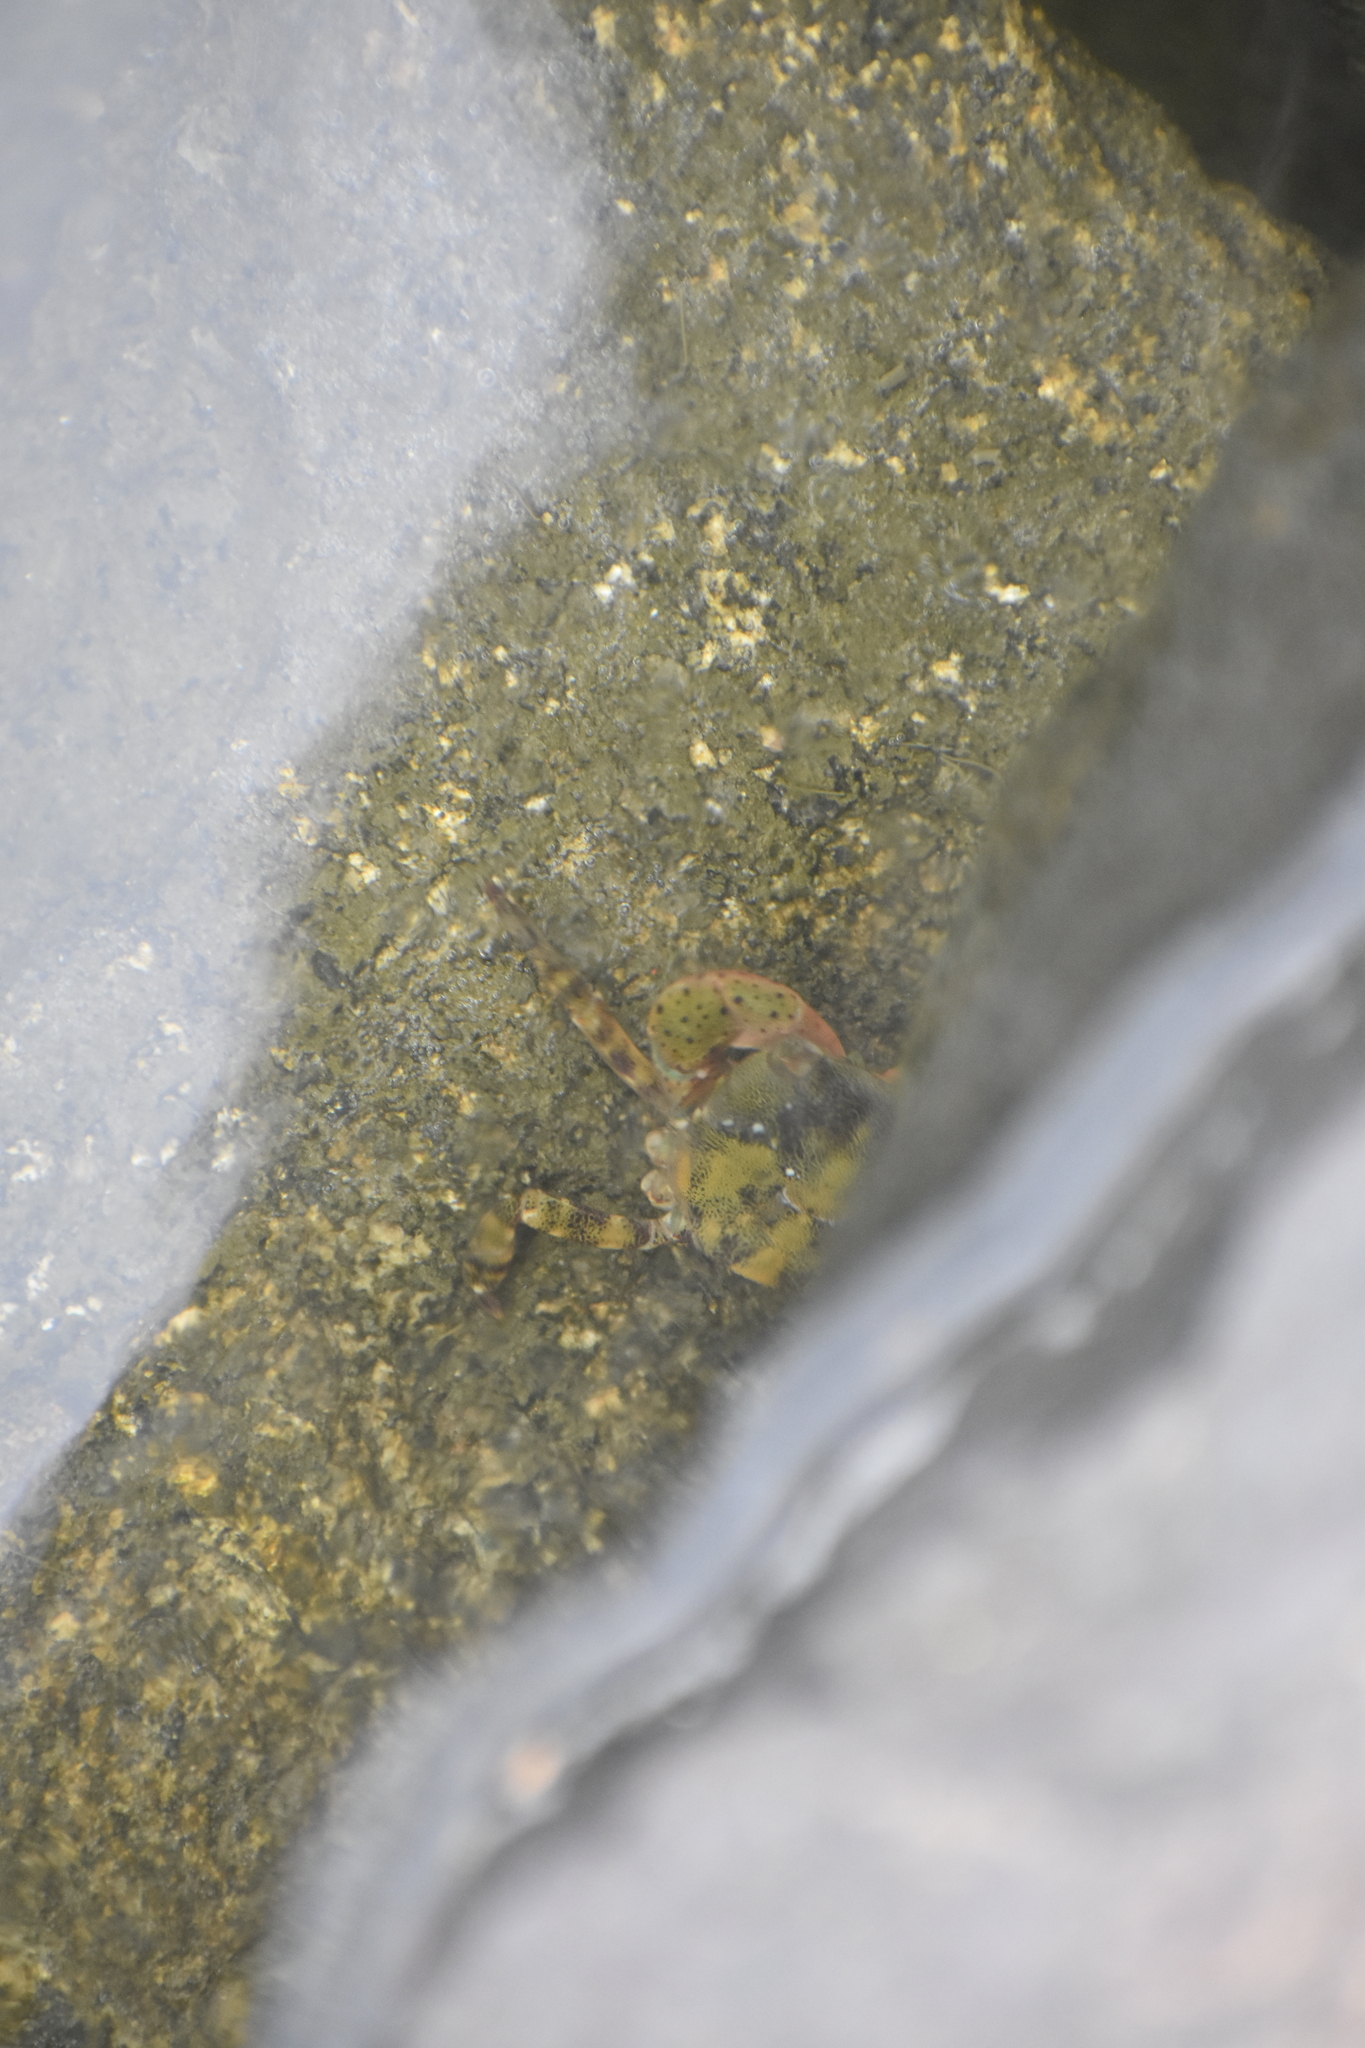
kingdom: Animalia
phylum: Arthropoda
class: Malacostraca
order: Decapoda
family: Varunidae
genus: Hemigrapsus
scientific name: Hemigrapsus sanguineus
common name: Asian shore crab
